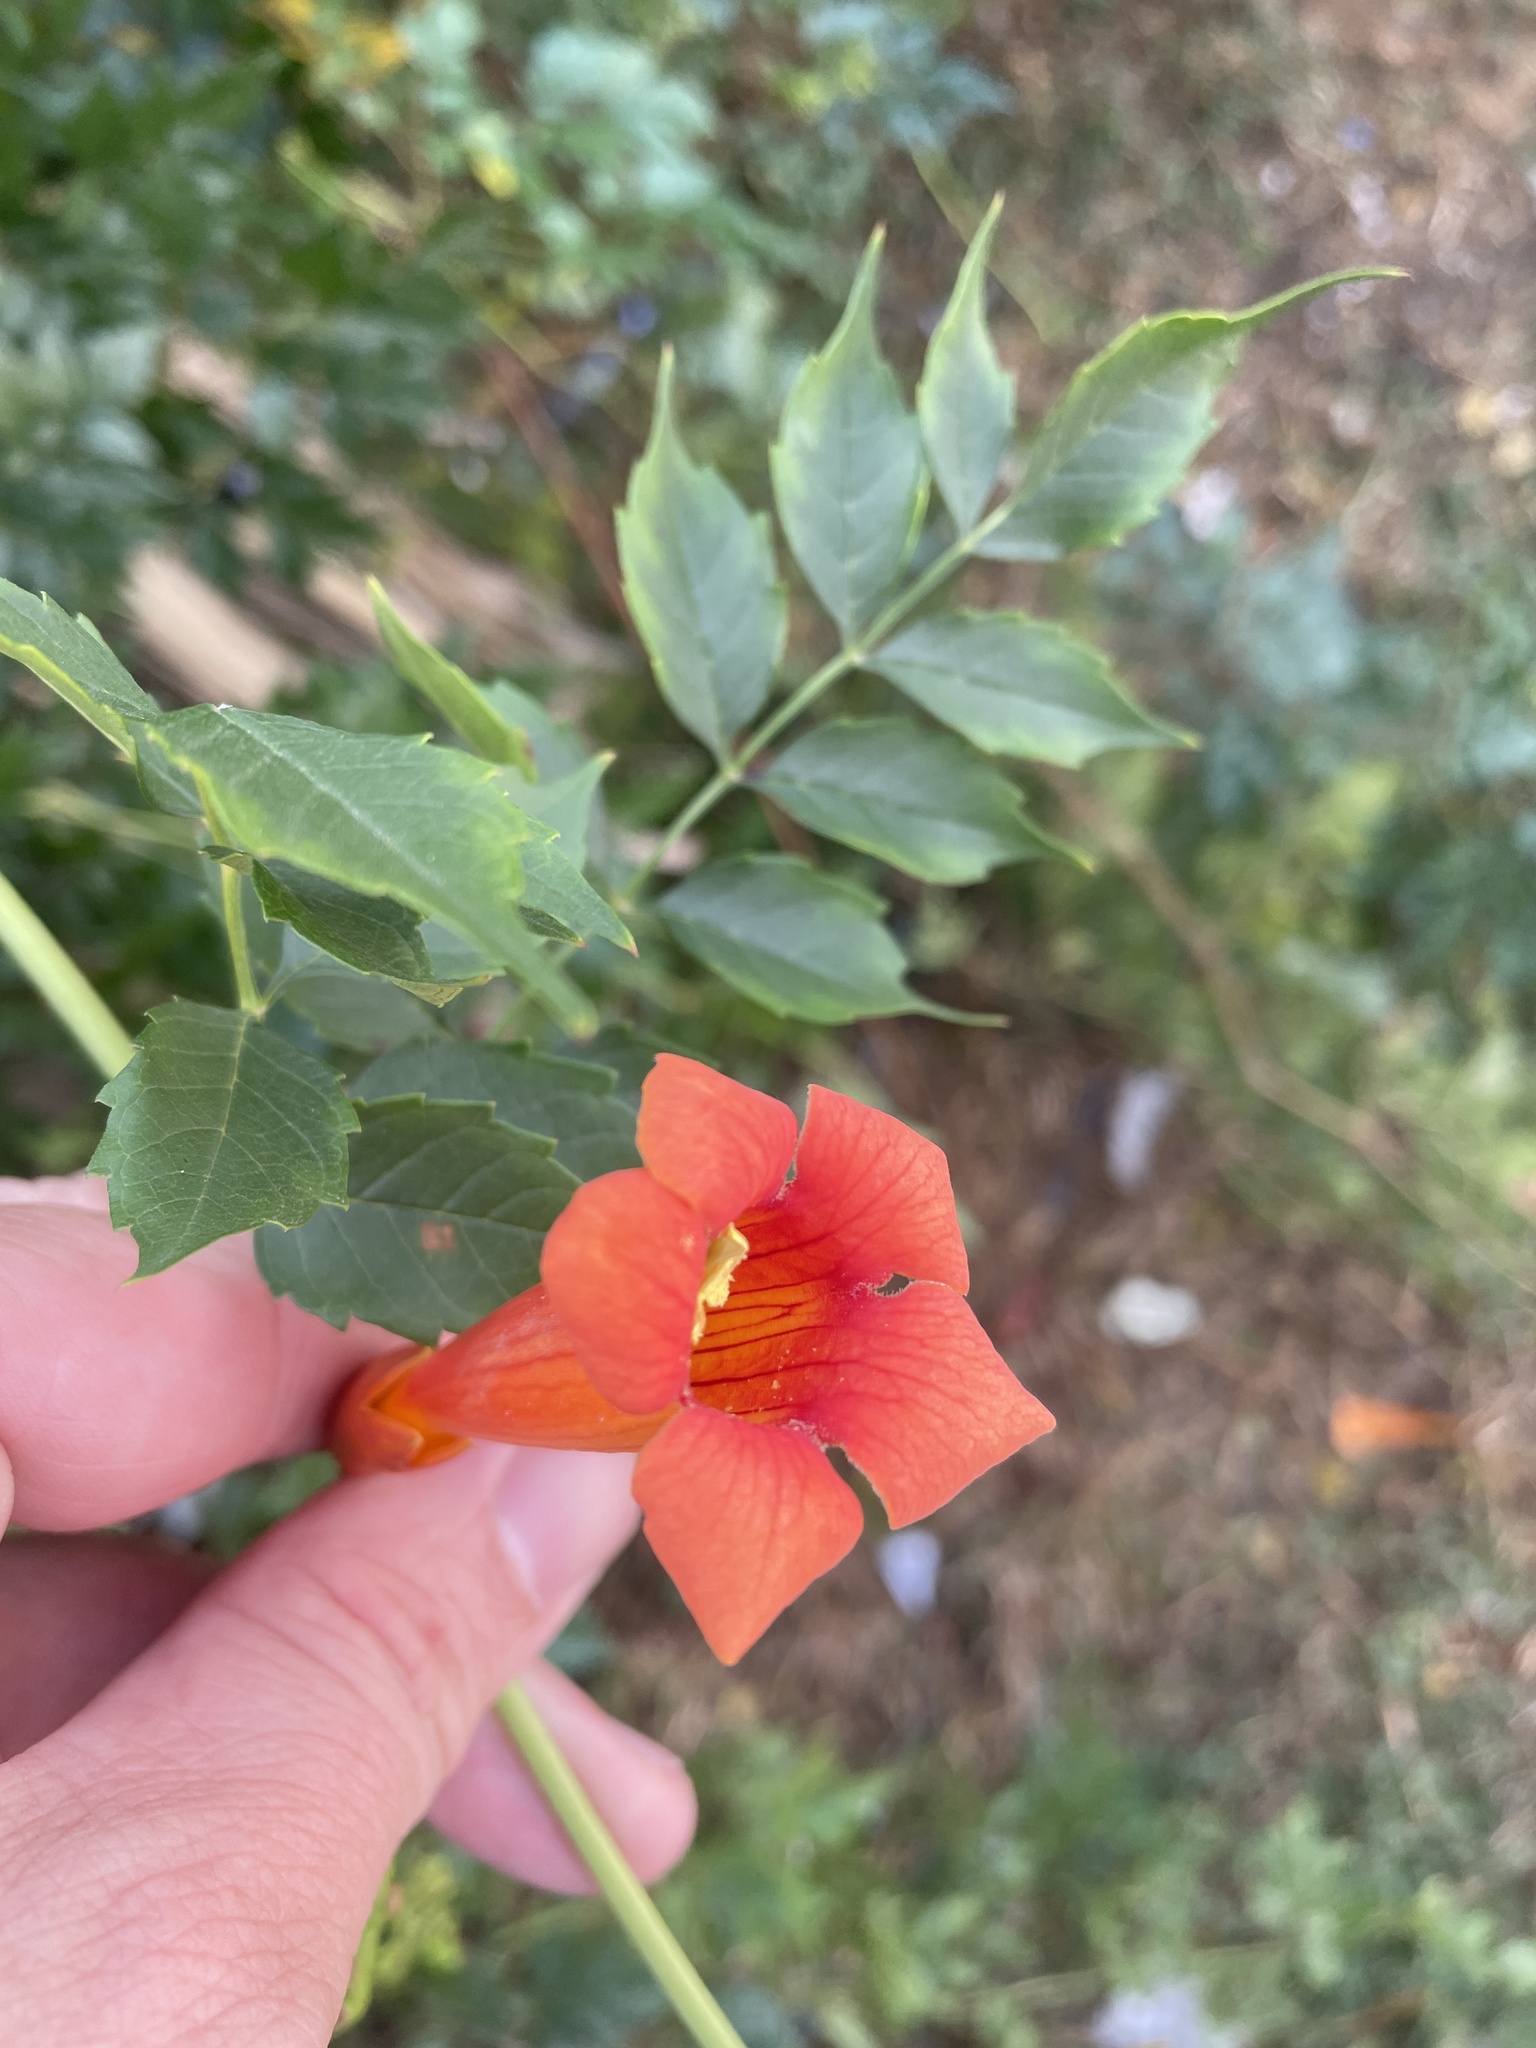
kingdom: Plantae
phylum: Tracheophyta
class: Magnoliopsida
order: Lamiales
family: Bignoniaceae
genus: Campsis
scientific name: Campsis radicans
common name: Trumpet-creeper
